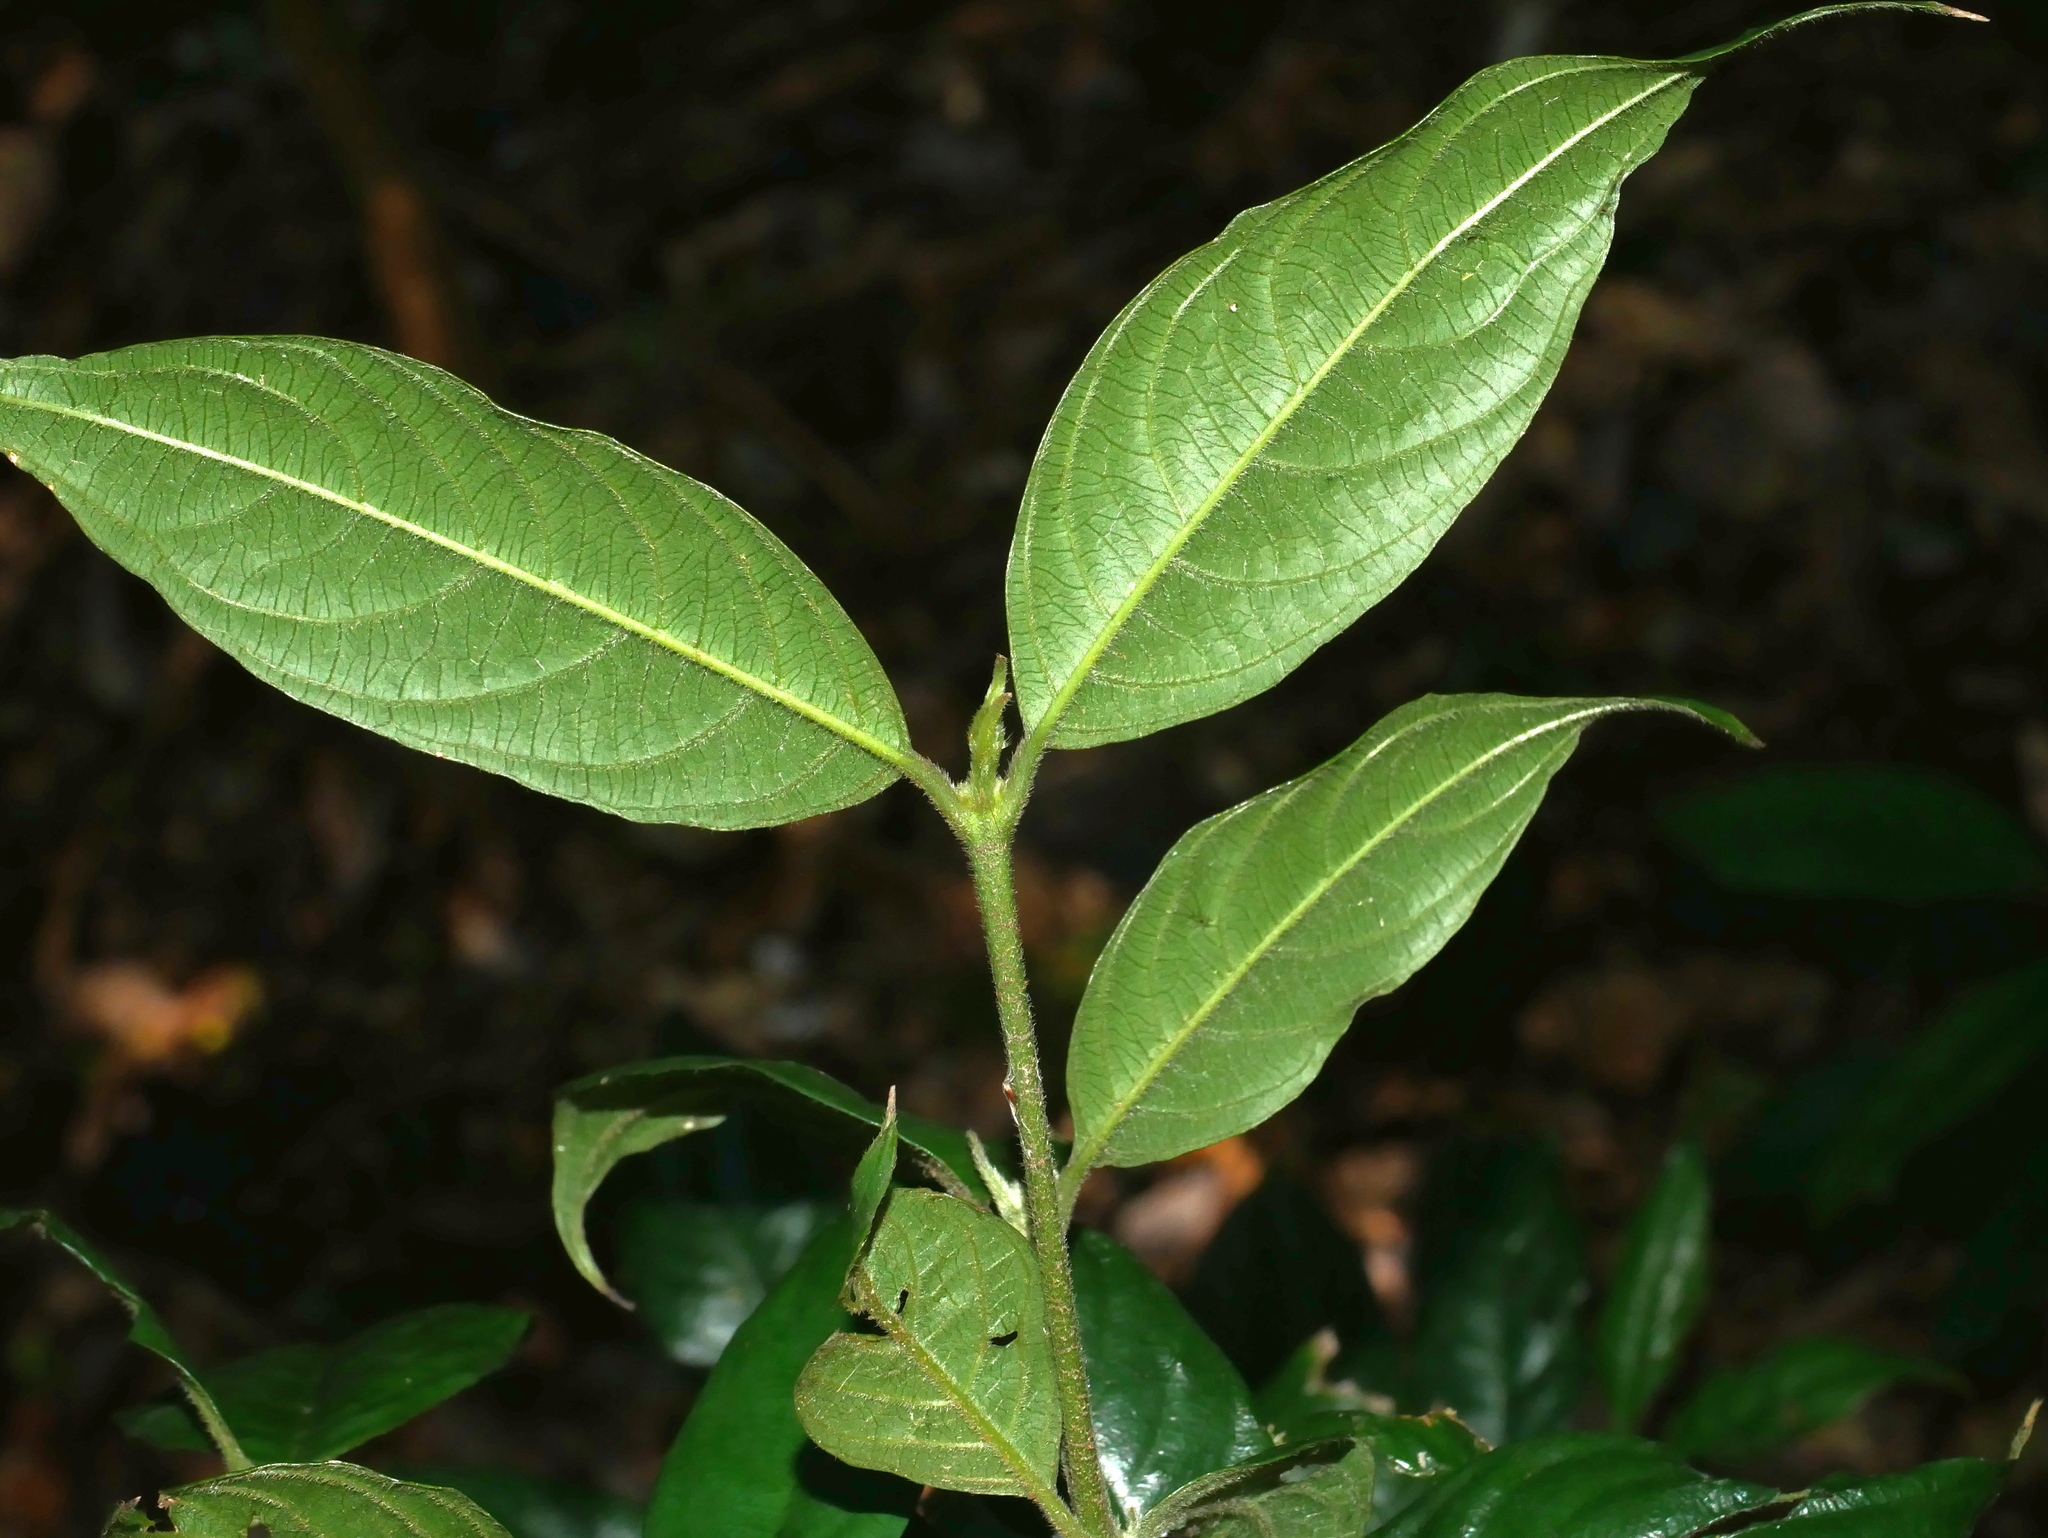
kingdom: Plantae
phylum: Tracheophyta
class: Magnoliopsida
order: Gentianales
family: Rubiaceae
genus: Lasianthus
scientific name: Lasianthus formosensis
